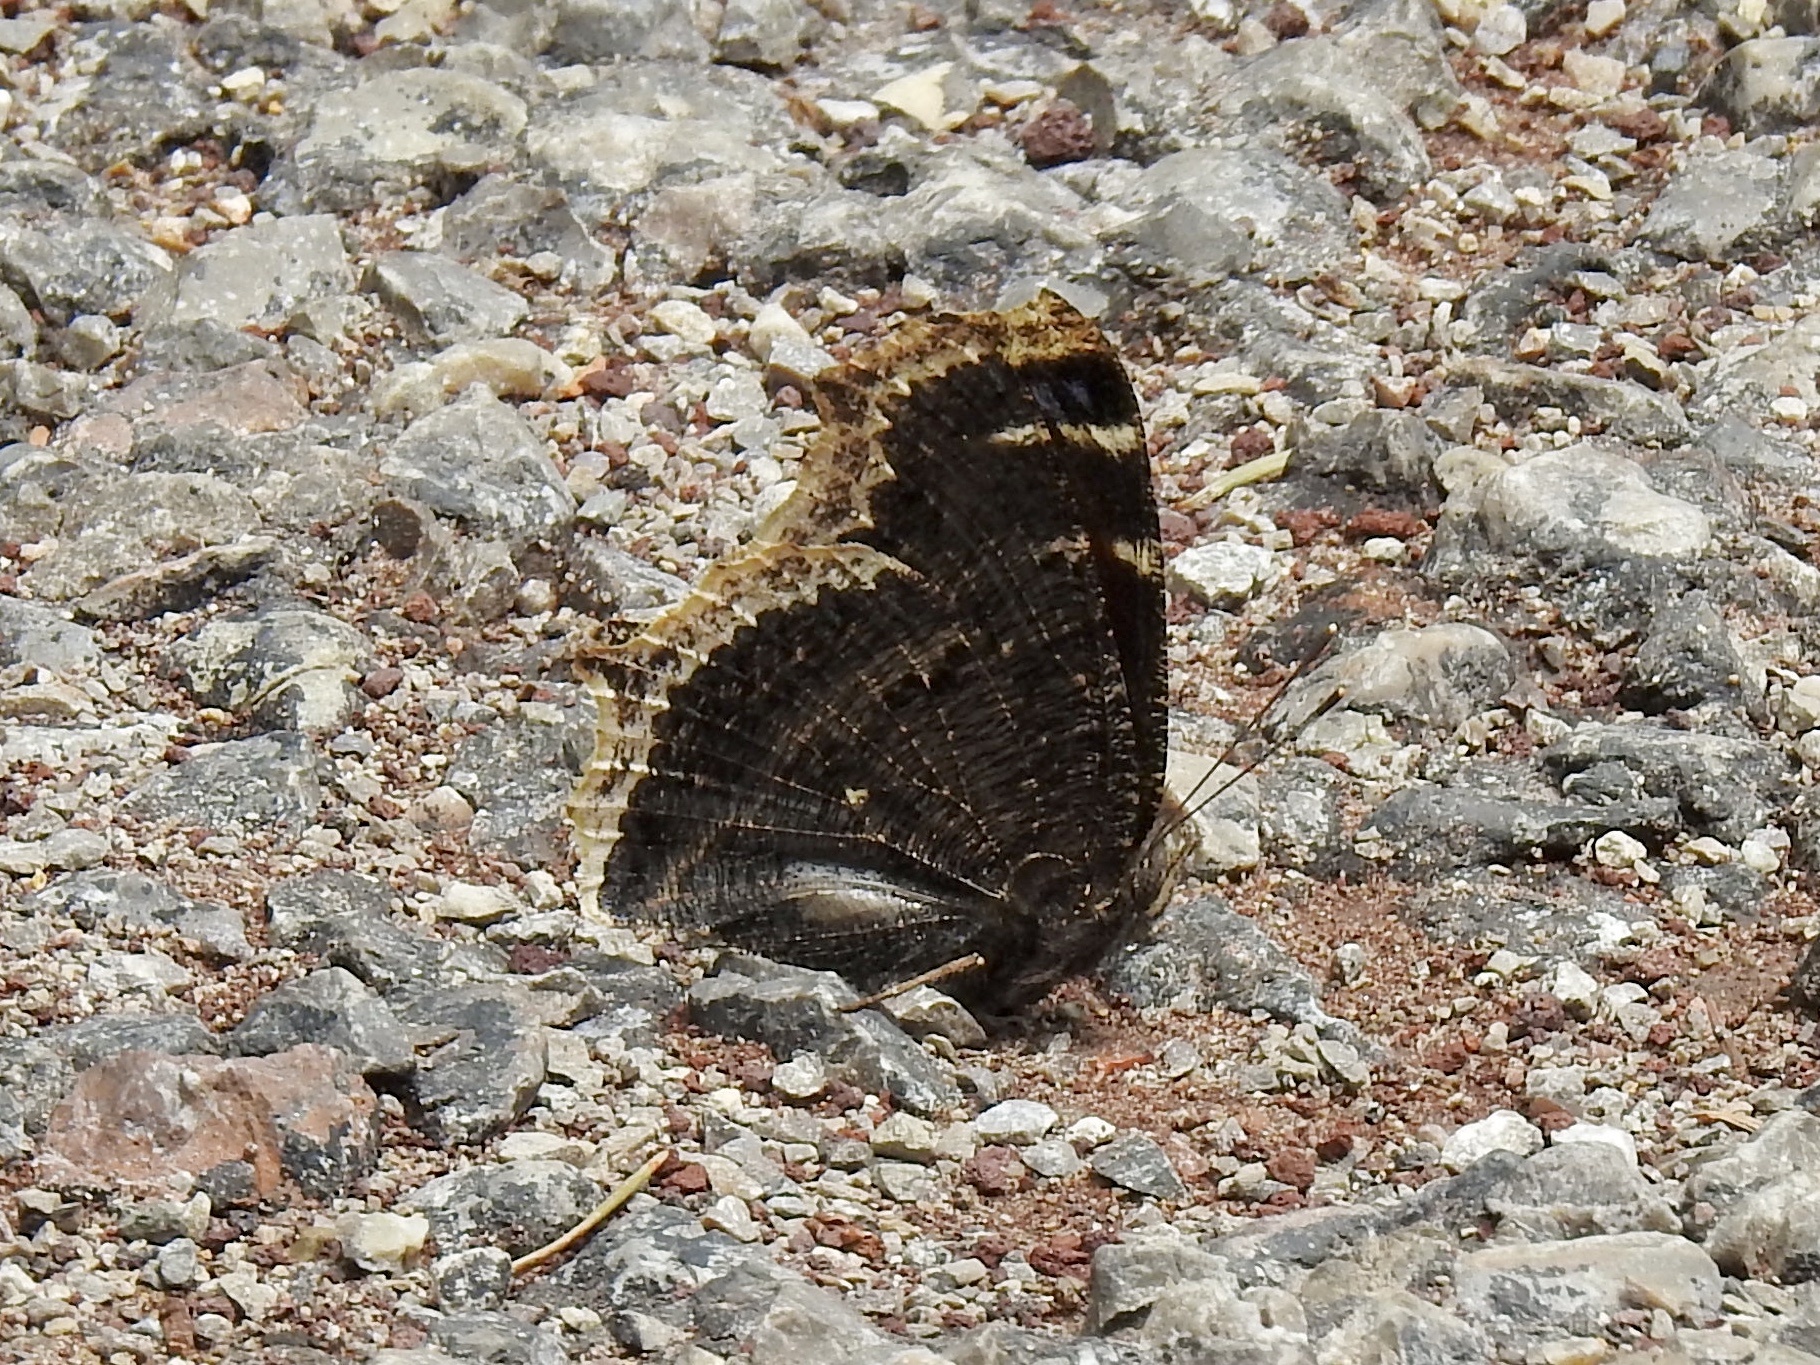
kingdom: Animalia
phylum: Arthropoda
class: Insecta
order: Lepidoptera
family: Nymphalidae
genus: Nymphalis
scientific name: Nymphalis antiopa
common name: Camberwell beauty
